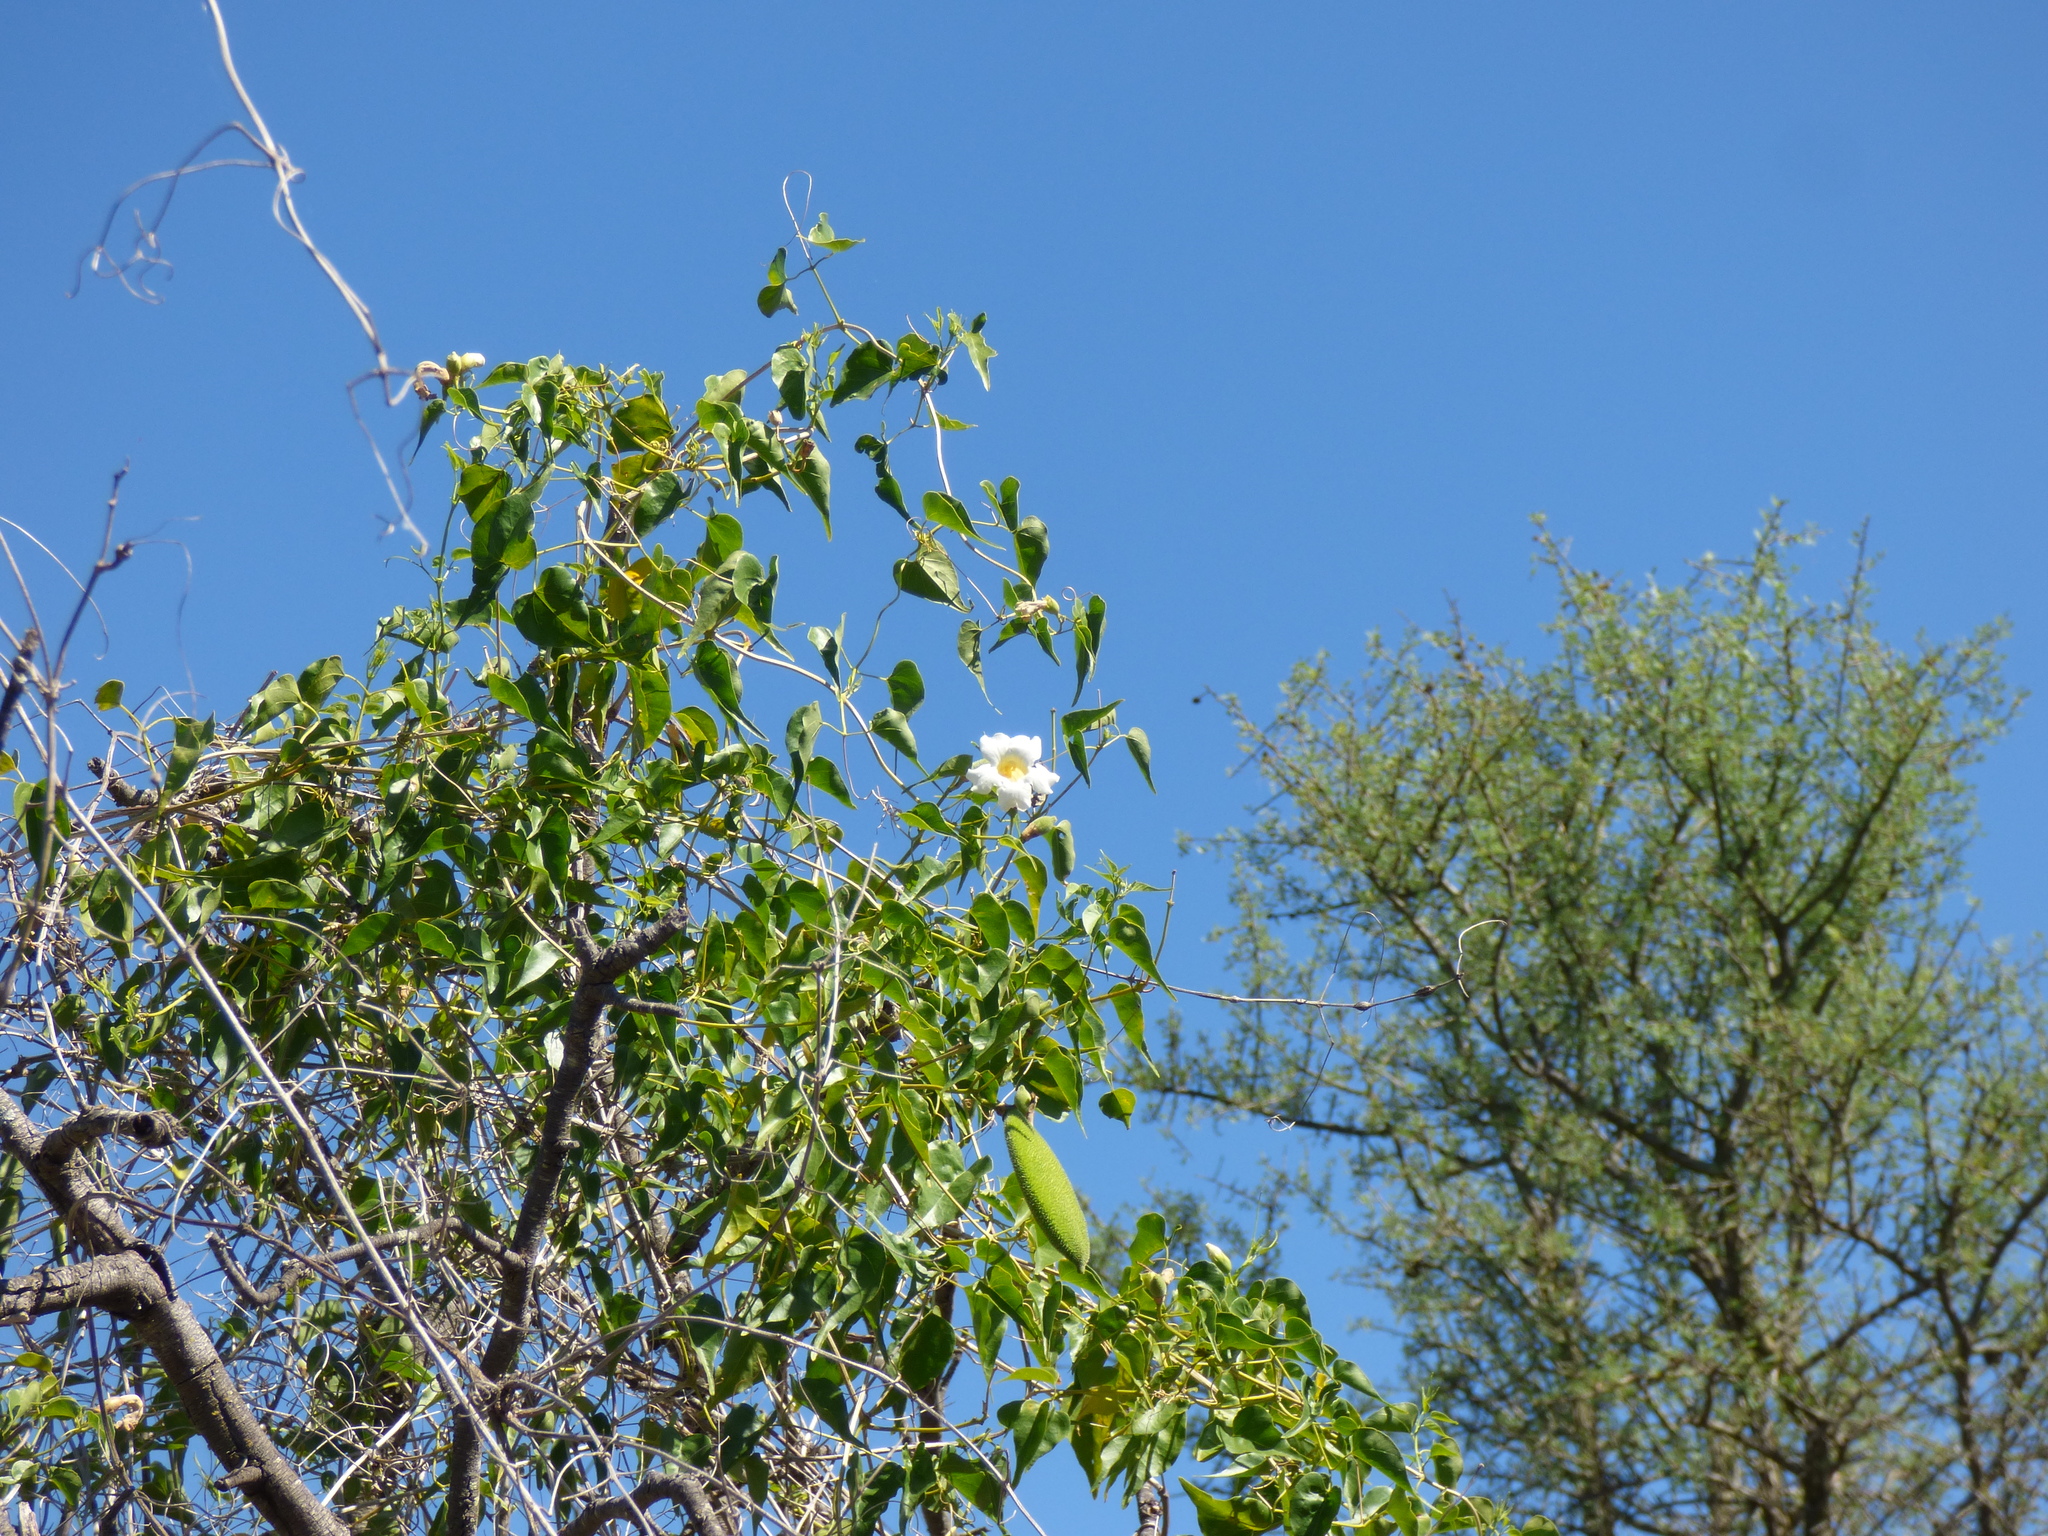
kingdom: Plantae
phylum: Tracheophyta
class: Magnoliopsida
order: Lamiales
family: Bignoniaceae
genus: Amphilophium
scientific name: Amphilophium carolinae
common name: Monkey's-comb
